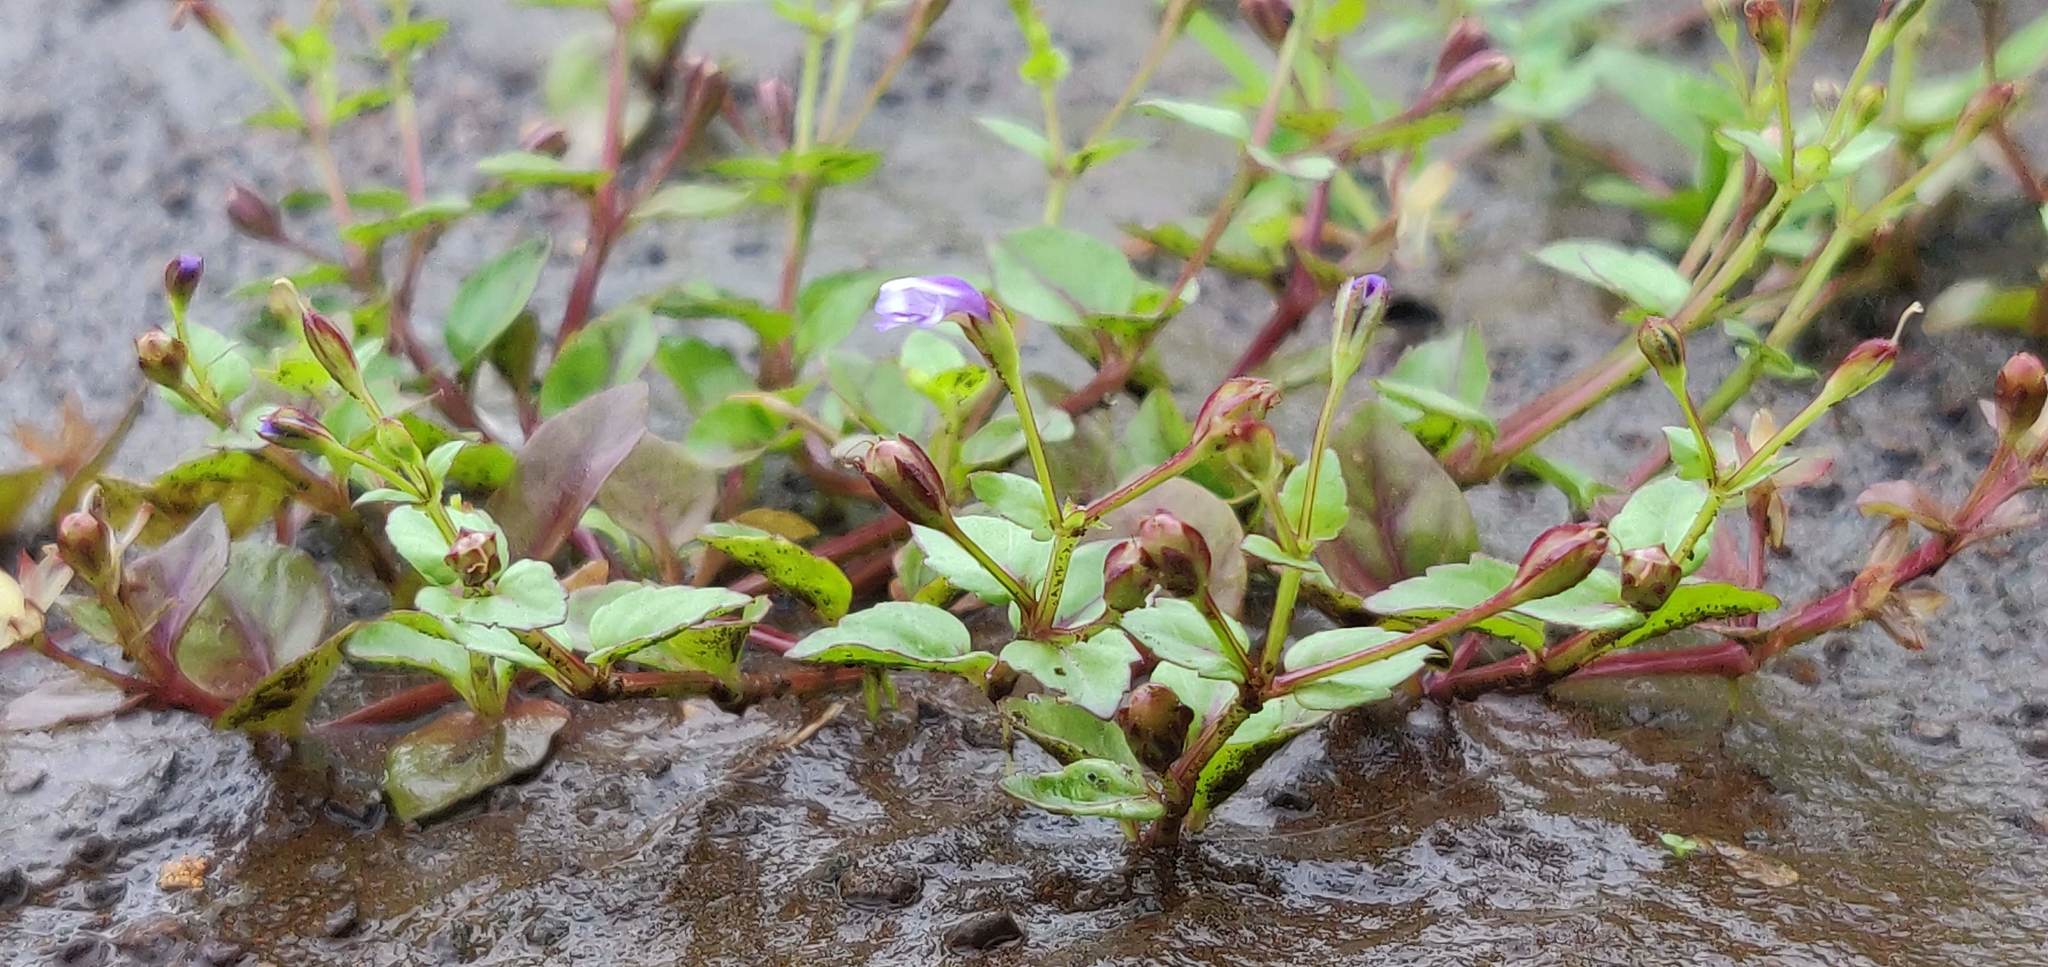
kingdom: Plantae
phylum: Tracheophyta
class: Magnoliopsida
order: Lamiales
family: Linderniaceae
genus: Torenia
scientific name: Torenia crustacea
